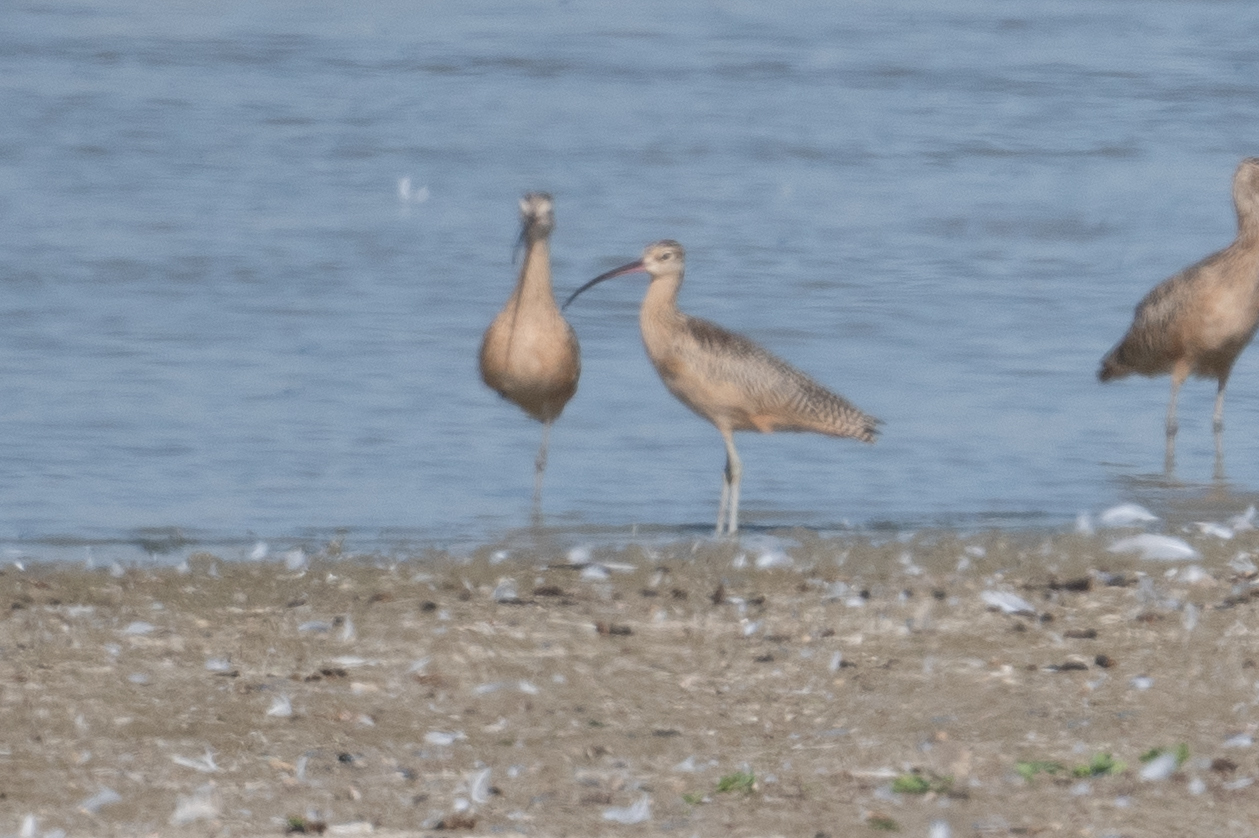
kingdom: Animalia
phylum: Chordata
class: Aves
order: Charadriiformes
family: Scolopacidae
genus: Numenius
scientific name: Numenius americanus
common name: Long-billed curlew
